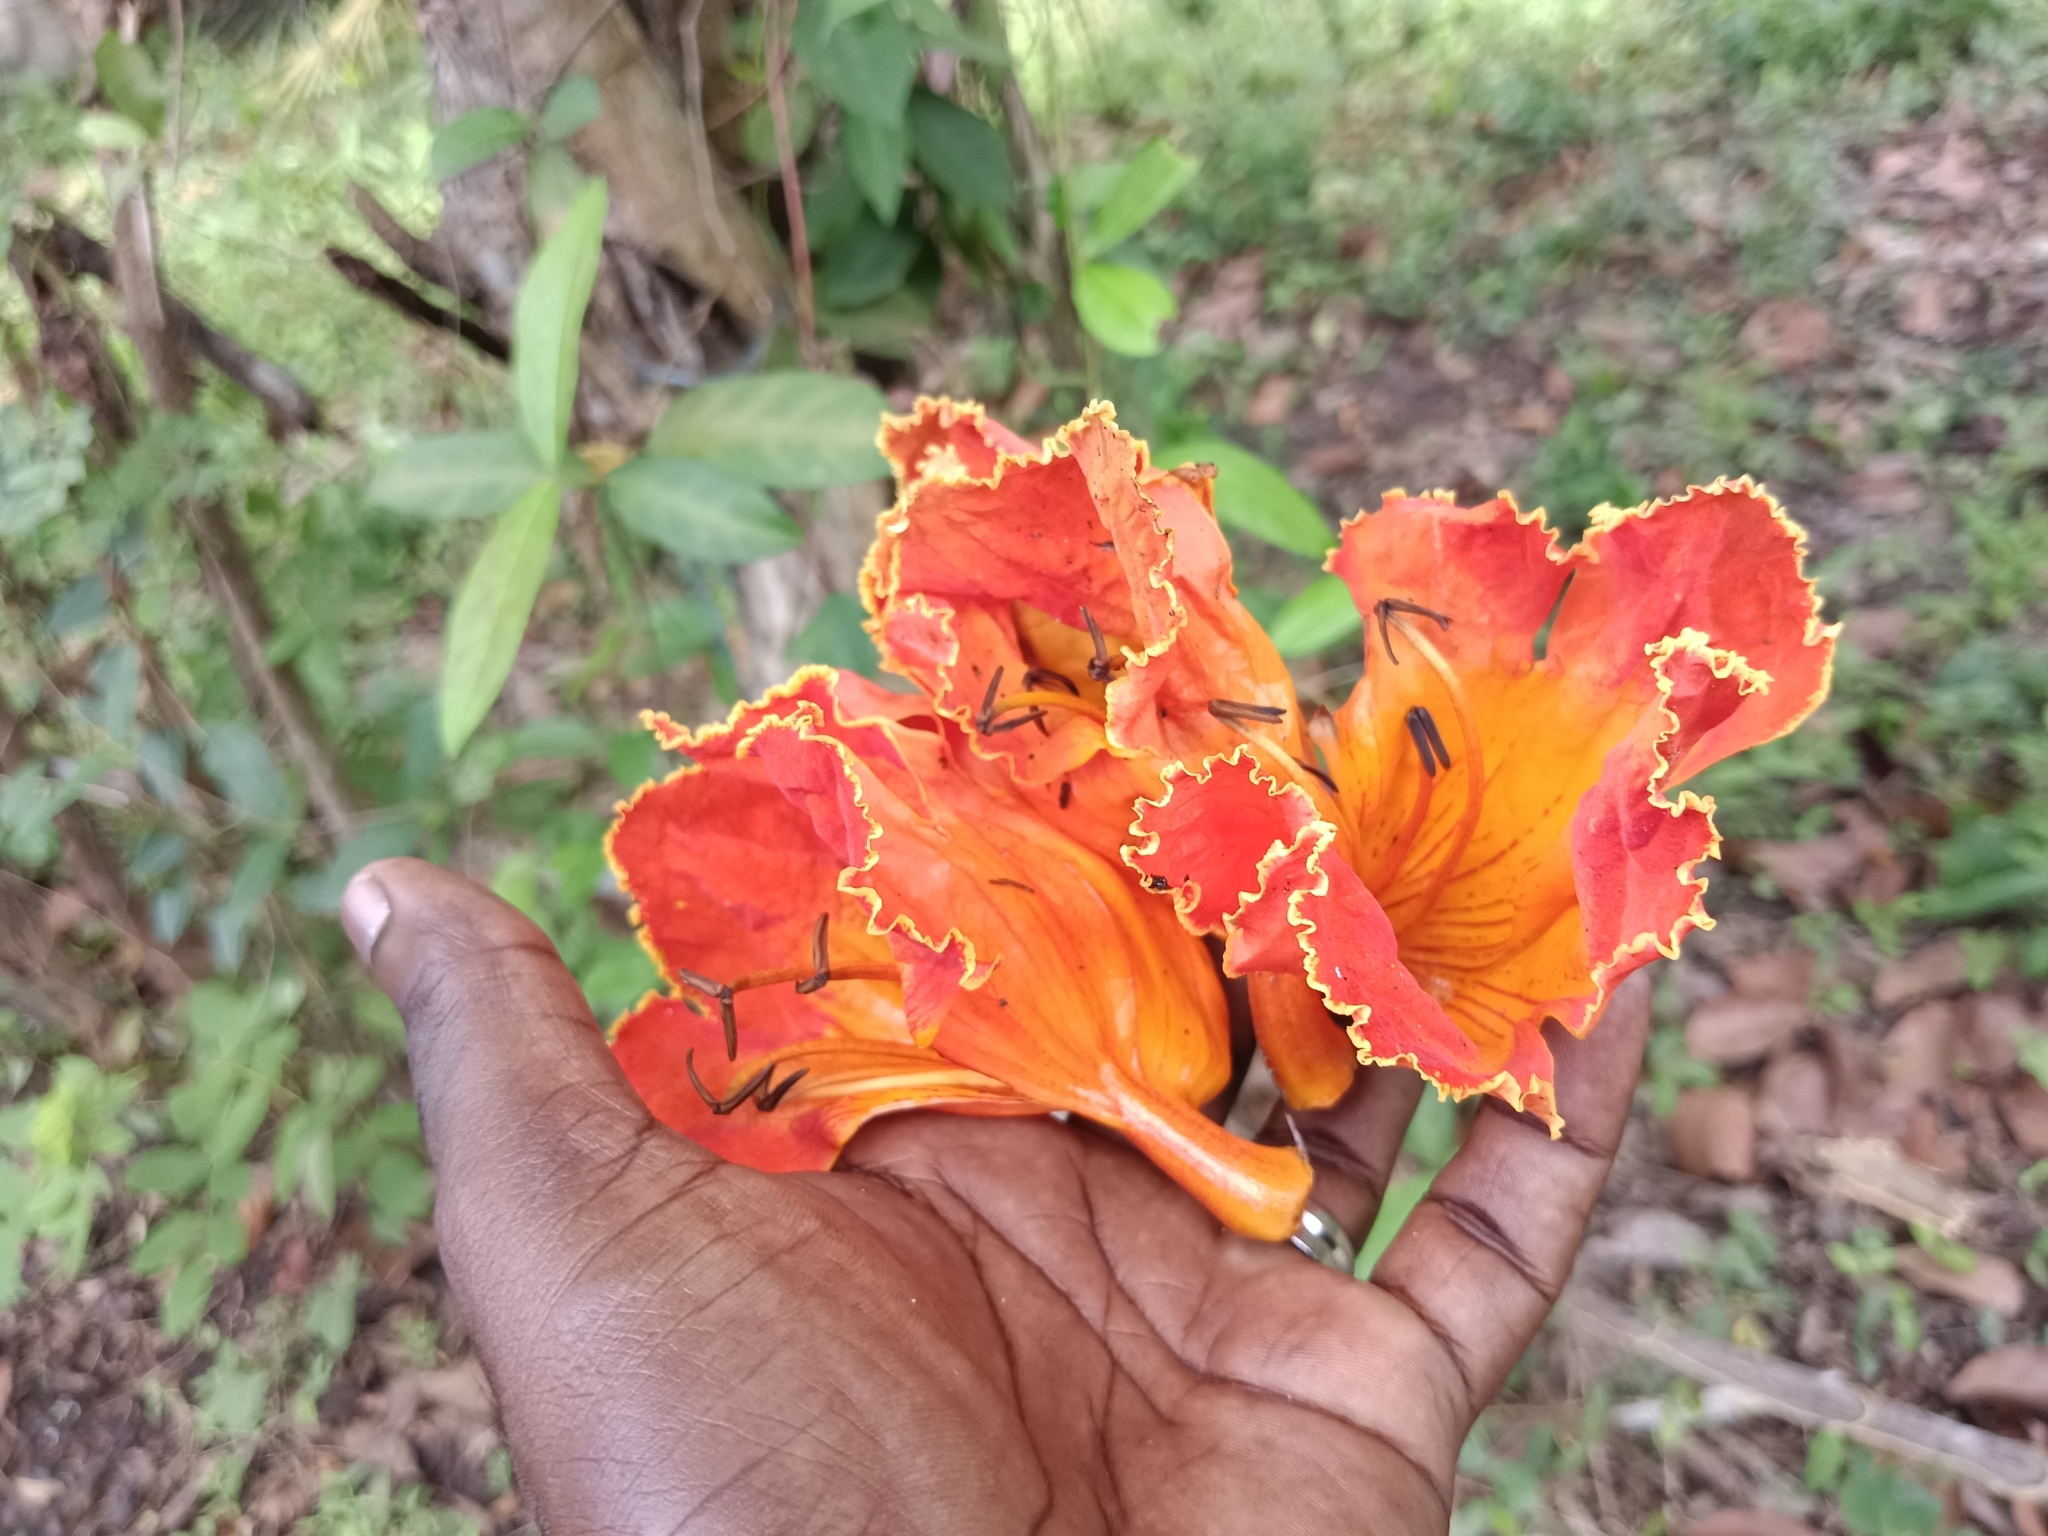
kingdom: Plantae
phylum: Tracheophyta
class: Magnoliopsida
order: Lamiales
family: Bignoniaceae
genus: Spathodea
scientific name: Spathodea campanulata
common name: African tuliptree
